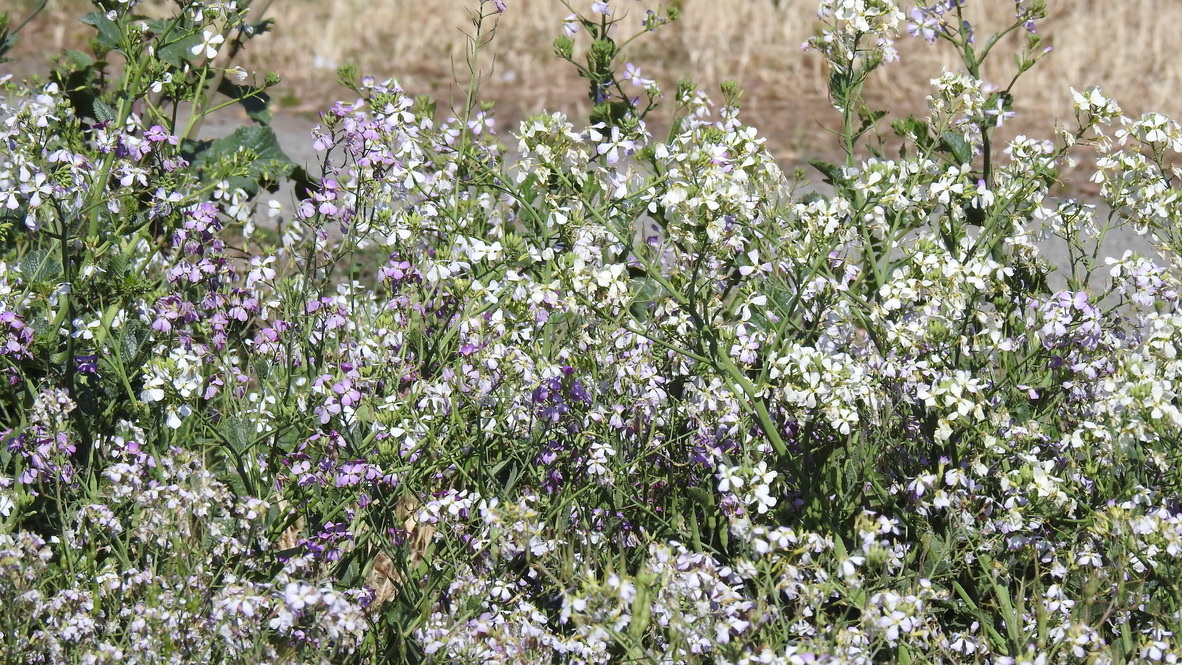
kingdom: Plantae
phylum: Tracheophyta
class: Magnoliopsida
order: Brassicales
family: Brassicaceae
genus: Raphanus
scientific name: Raphanus sativus
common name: Cultivated radish
